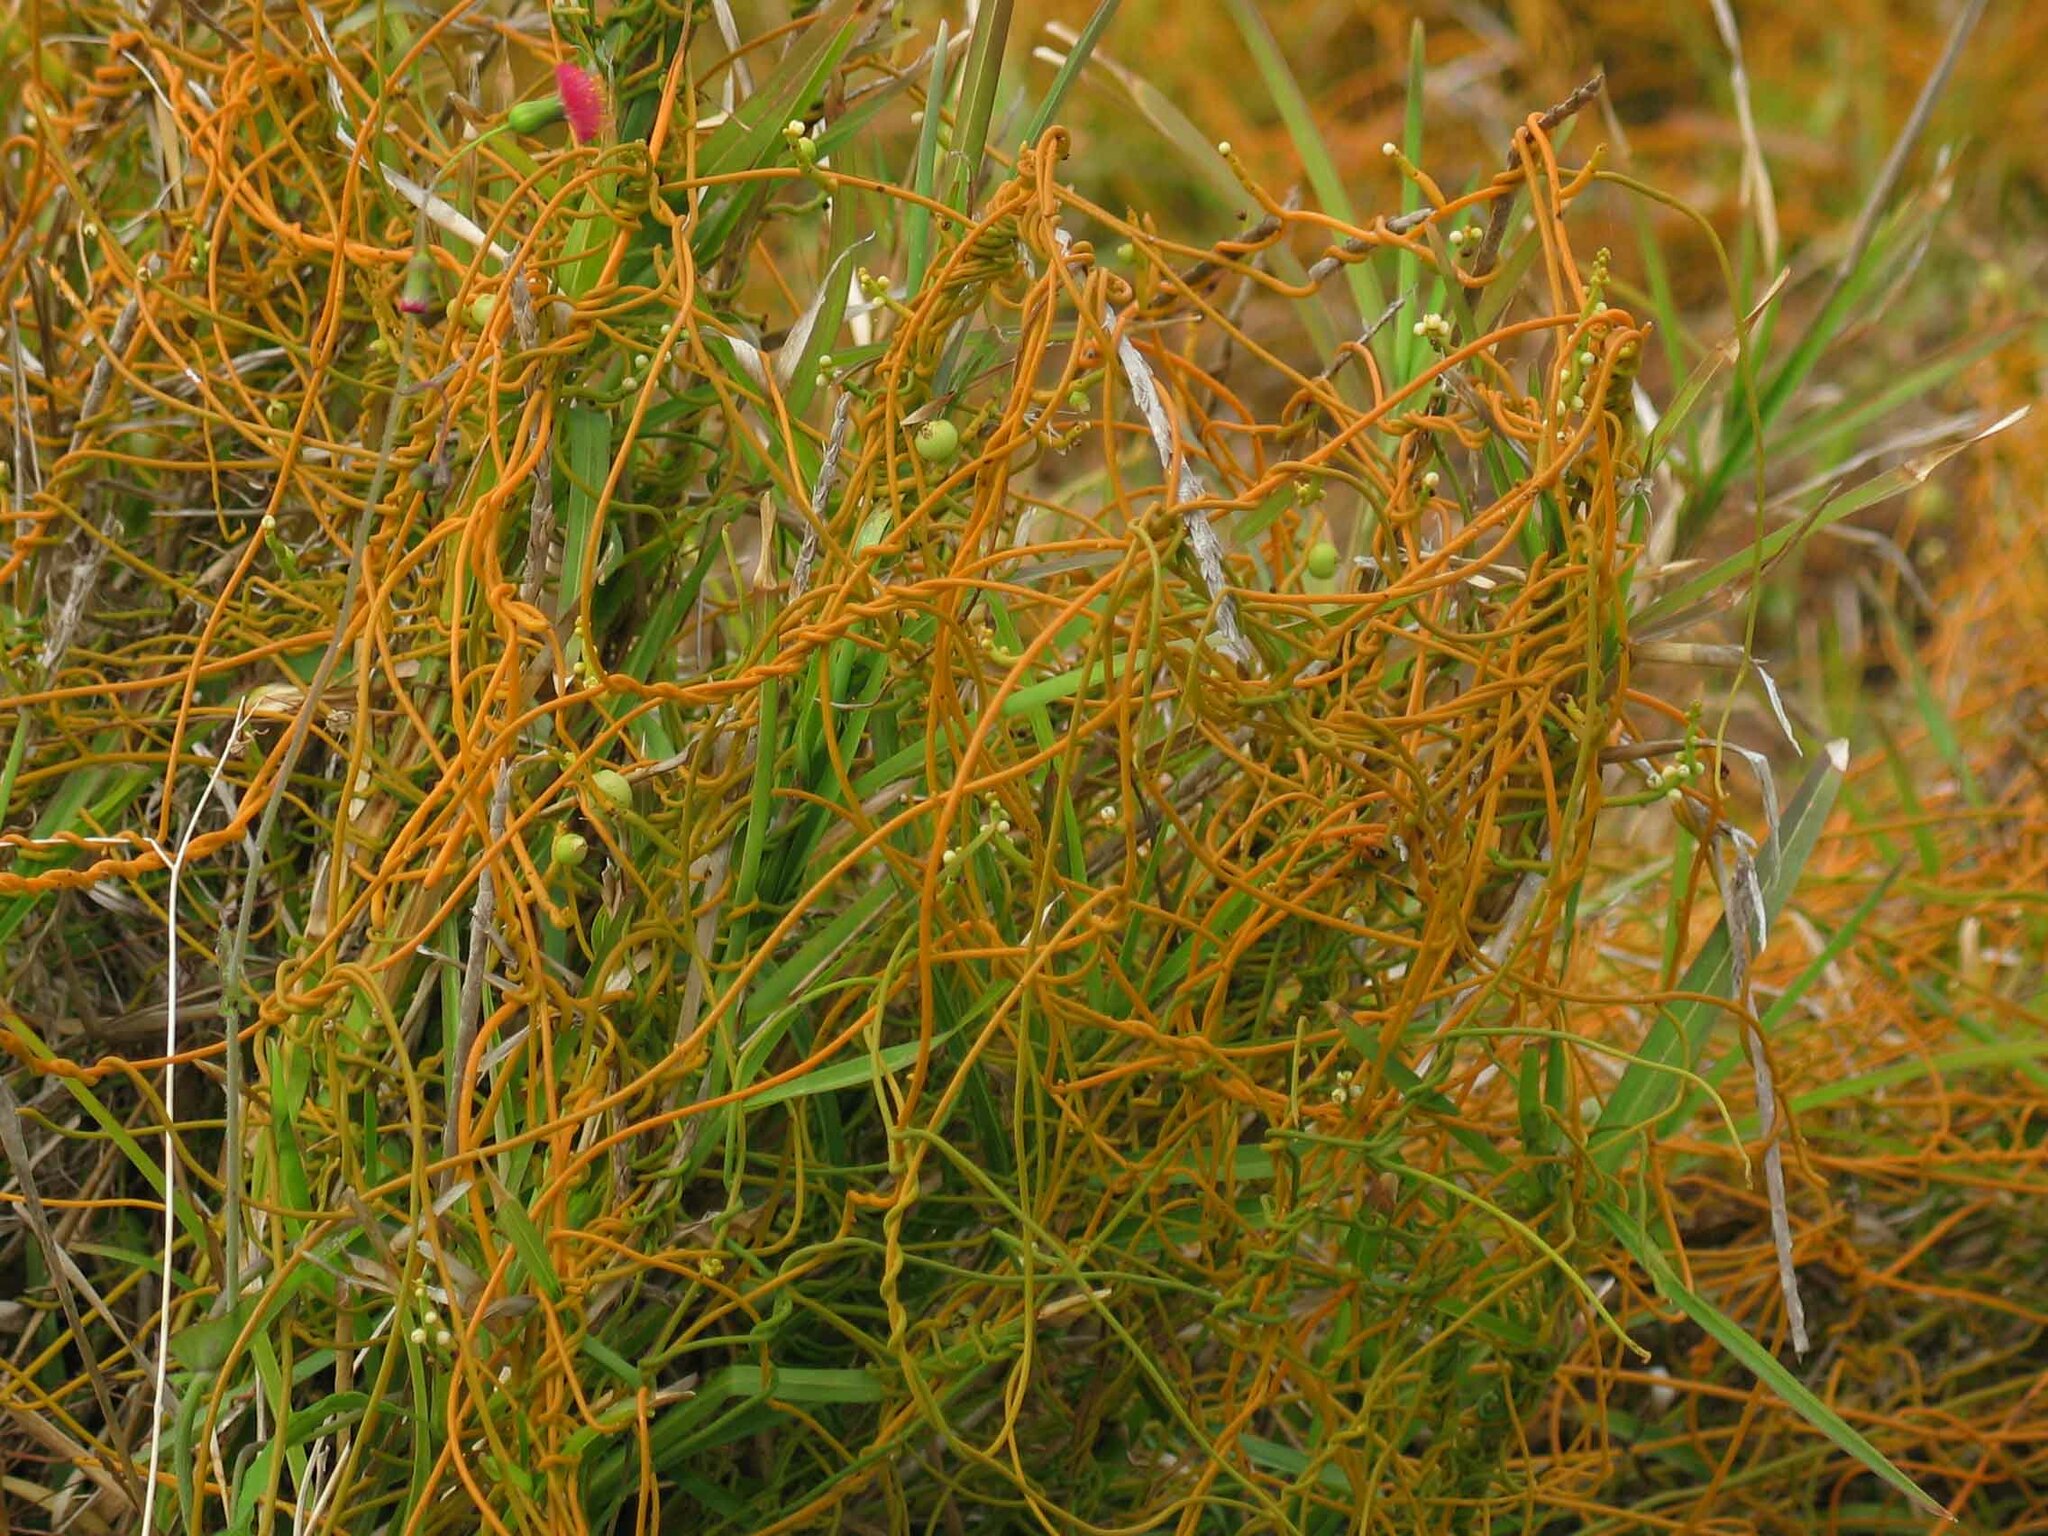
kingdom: Plantae
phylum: Tracheophyta
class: Magnoliopsida
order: Laurales
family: Lauraceae
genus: Cassytha
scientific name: Cassytha filiformis
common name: Dodder-laurel
